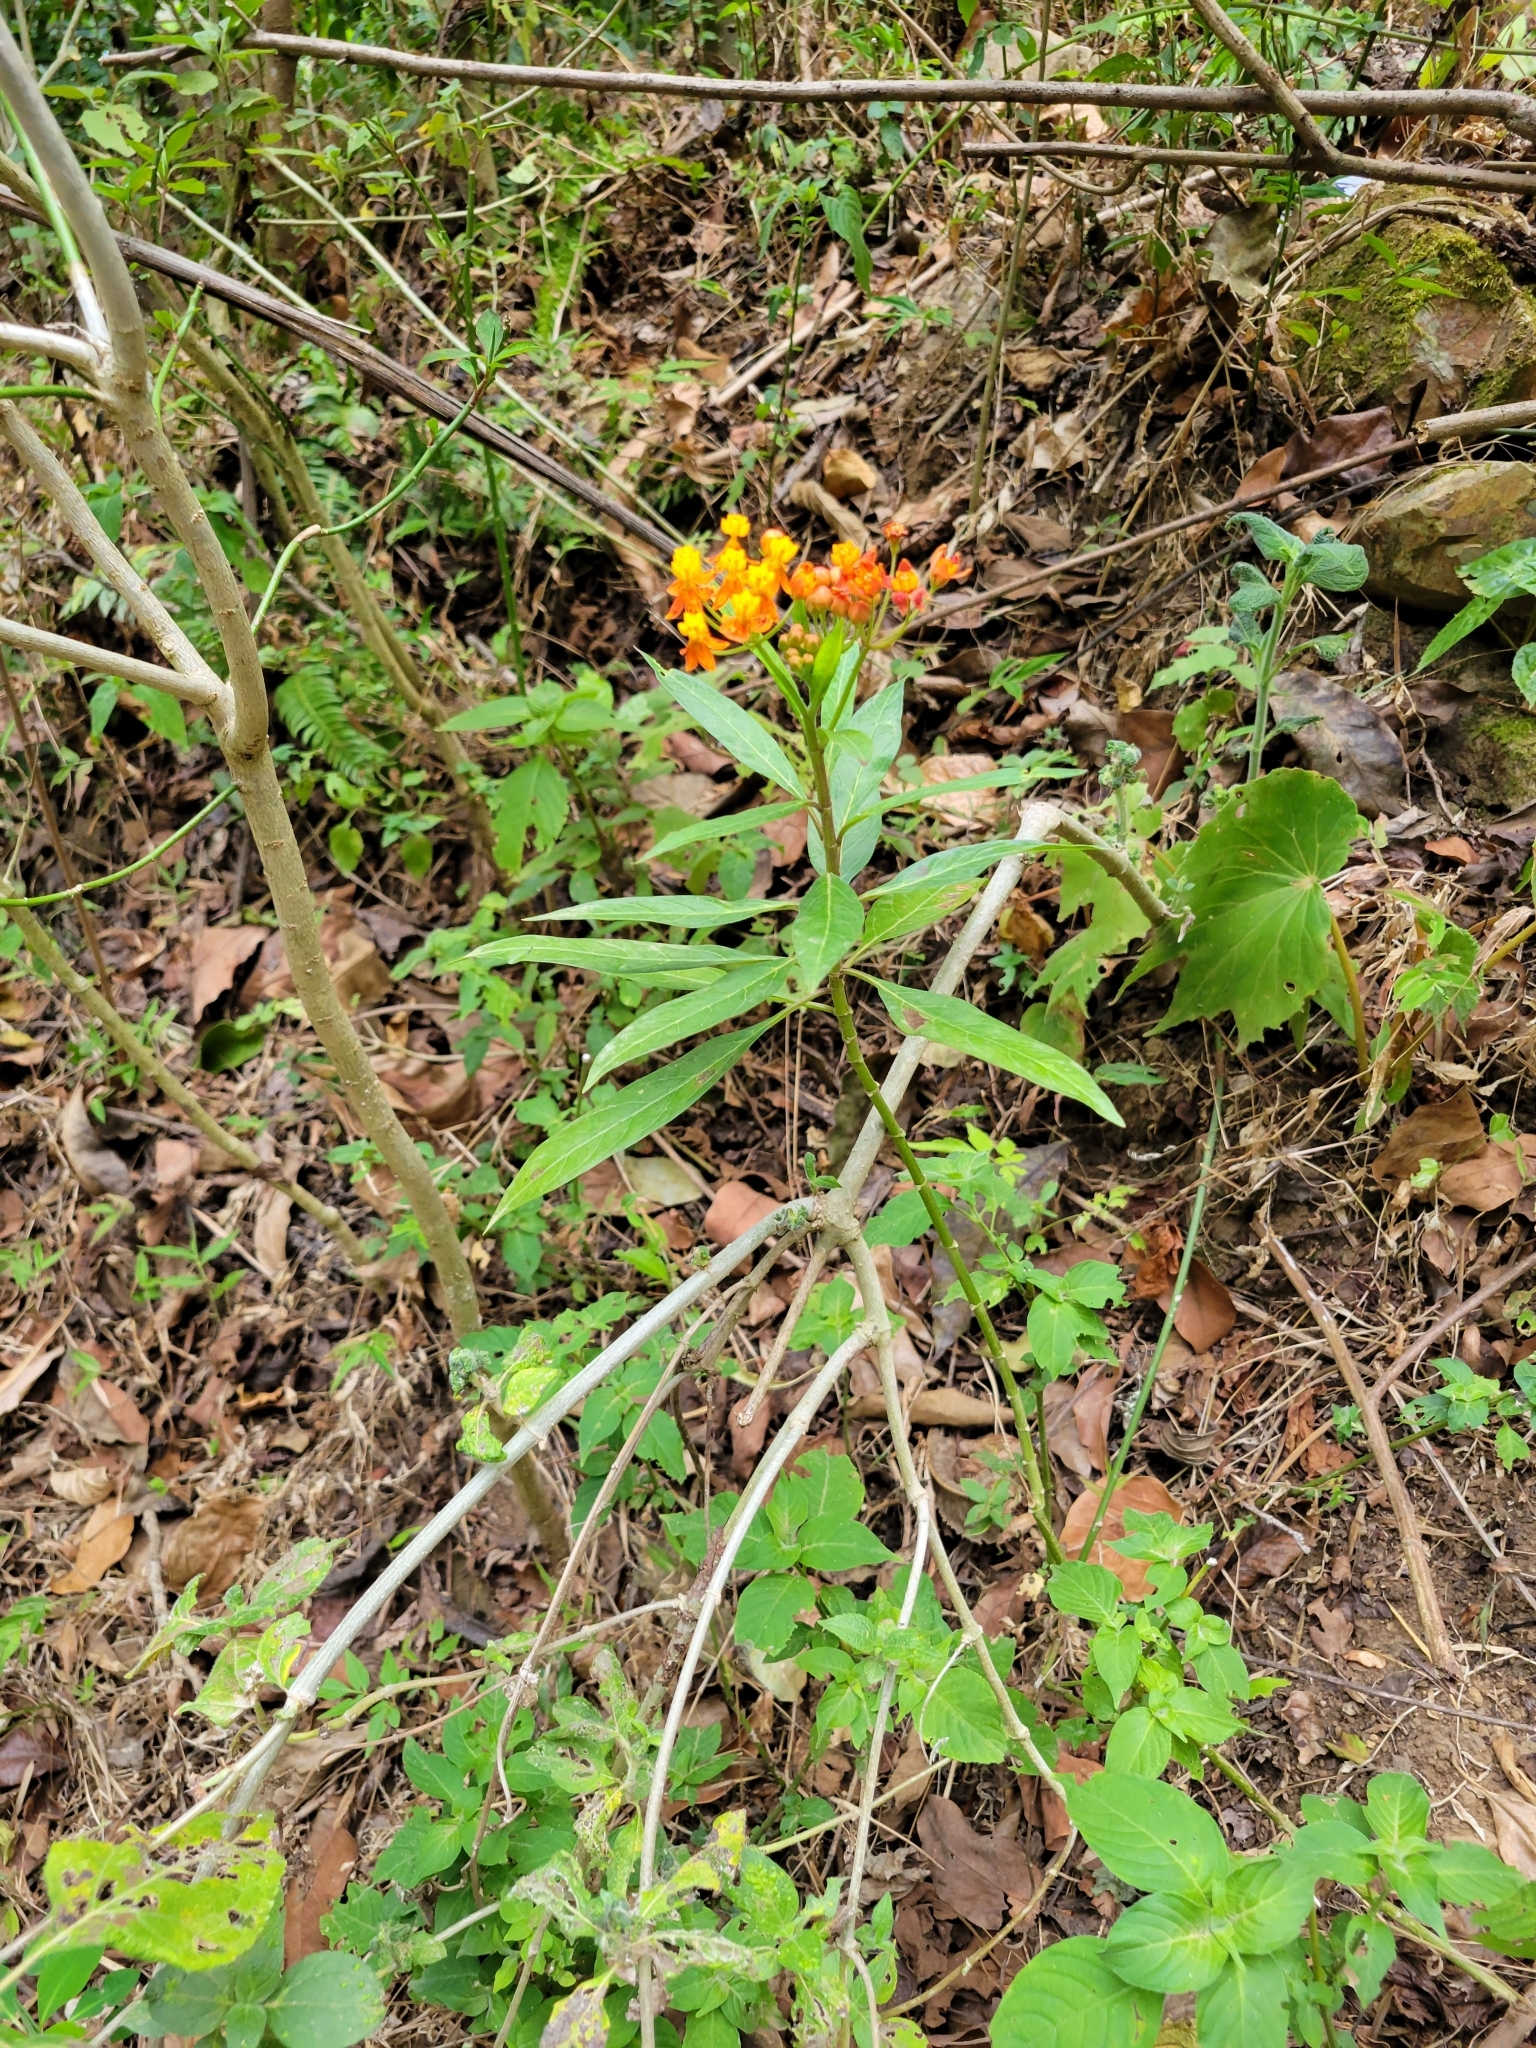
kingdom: Plantae
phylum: Tracheophyta
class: Magnoliopsida
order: Gentianales
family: Apocynaceae
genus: Asclepias
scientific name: Asclepias curassavica
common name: Bloodflower
